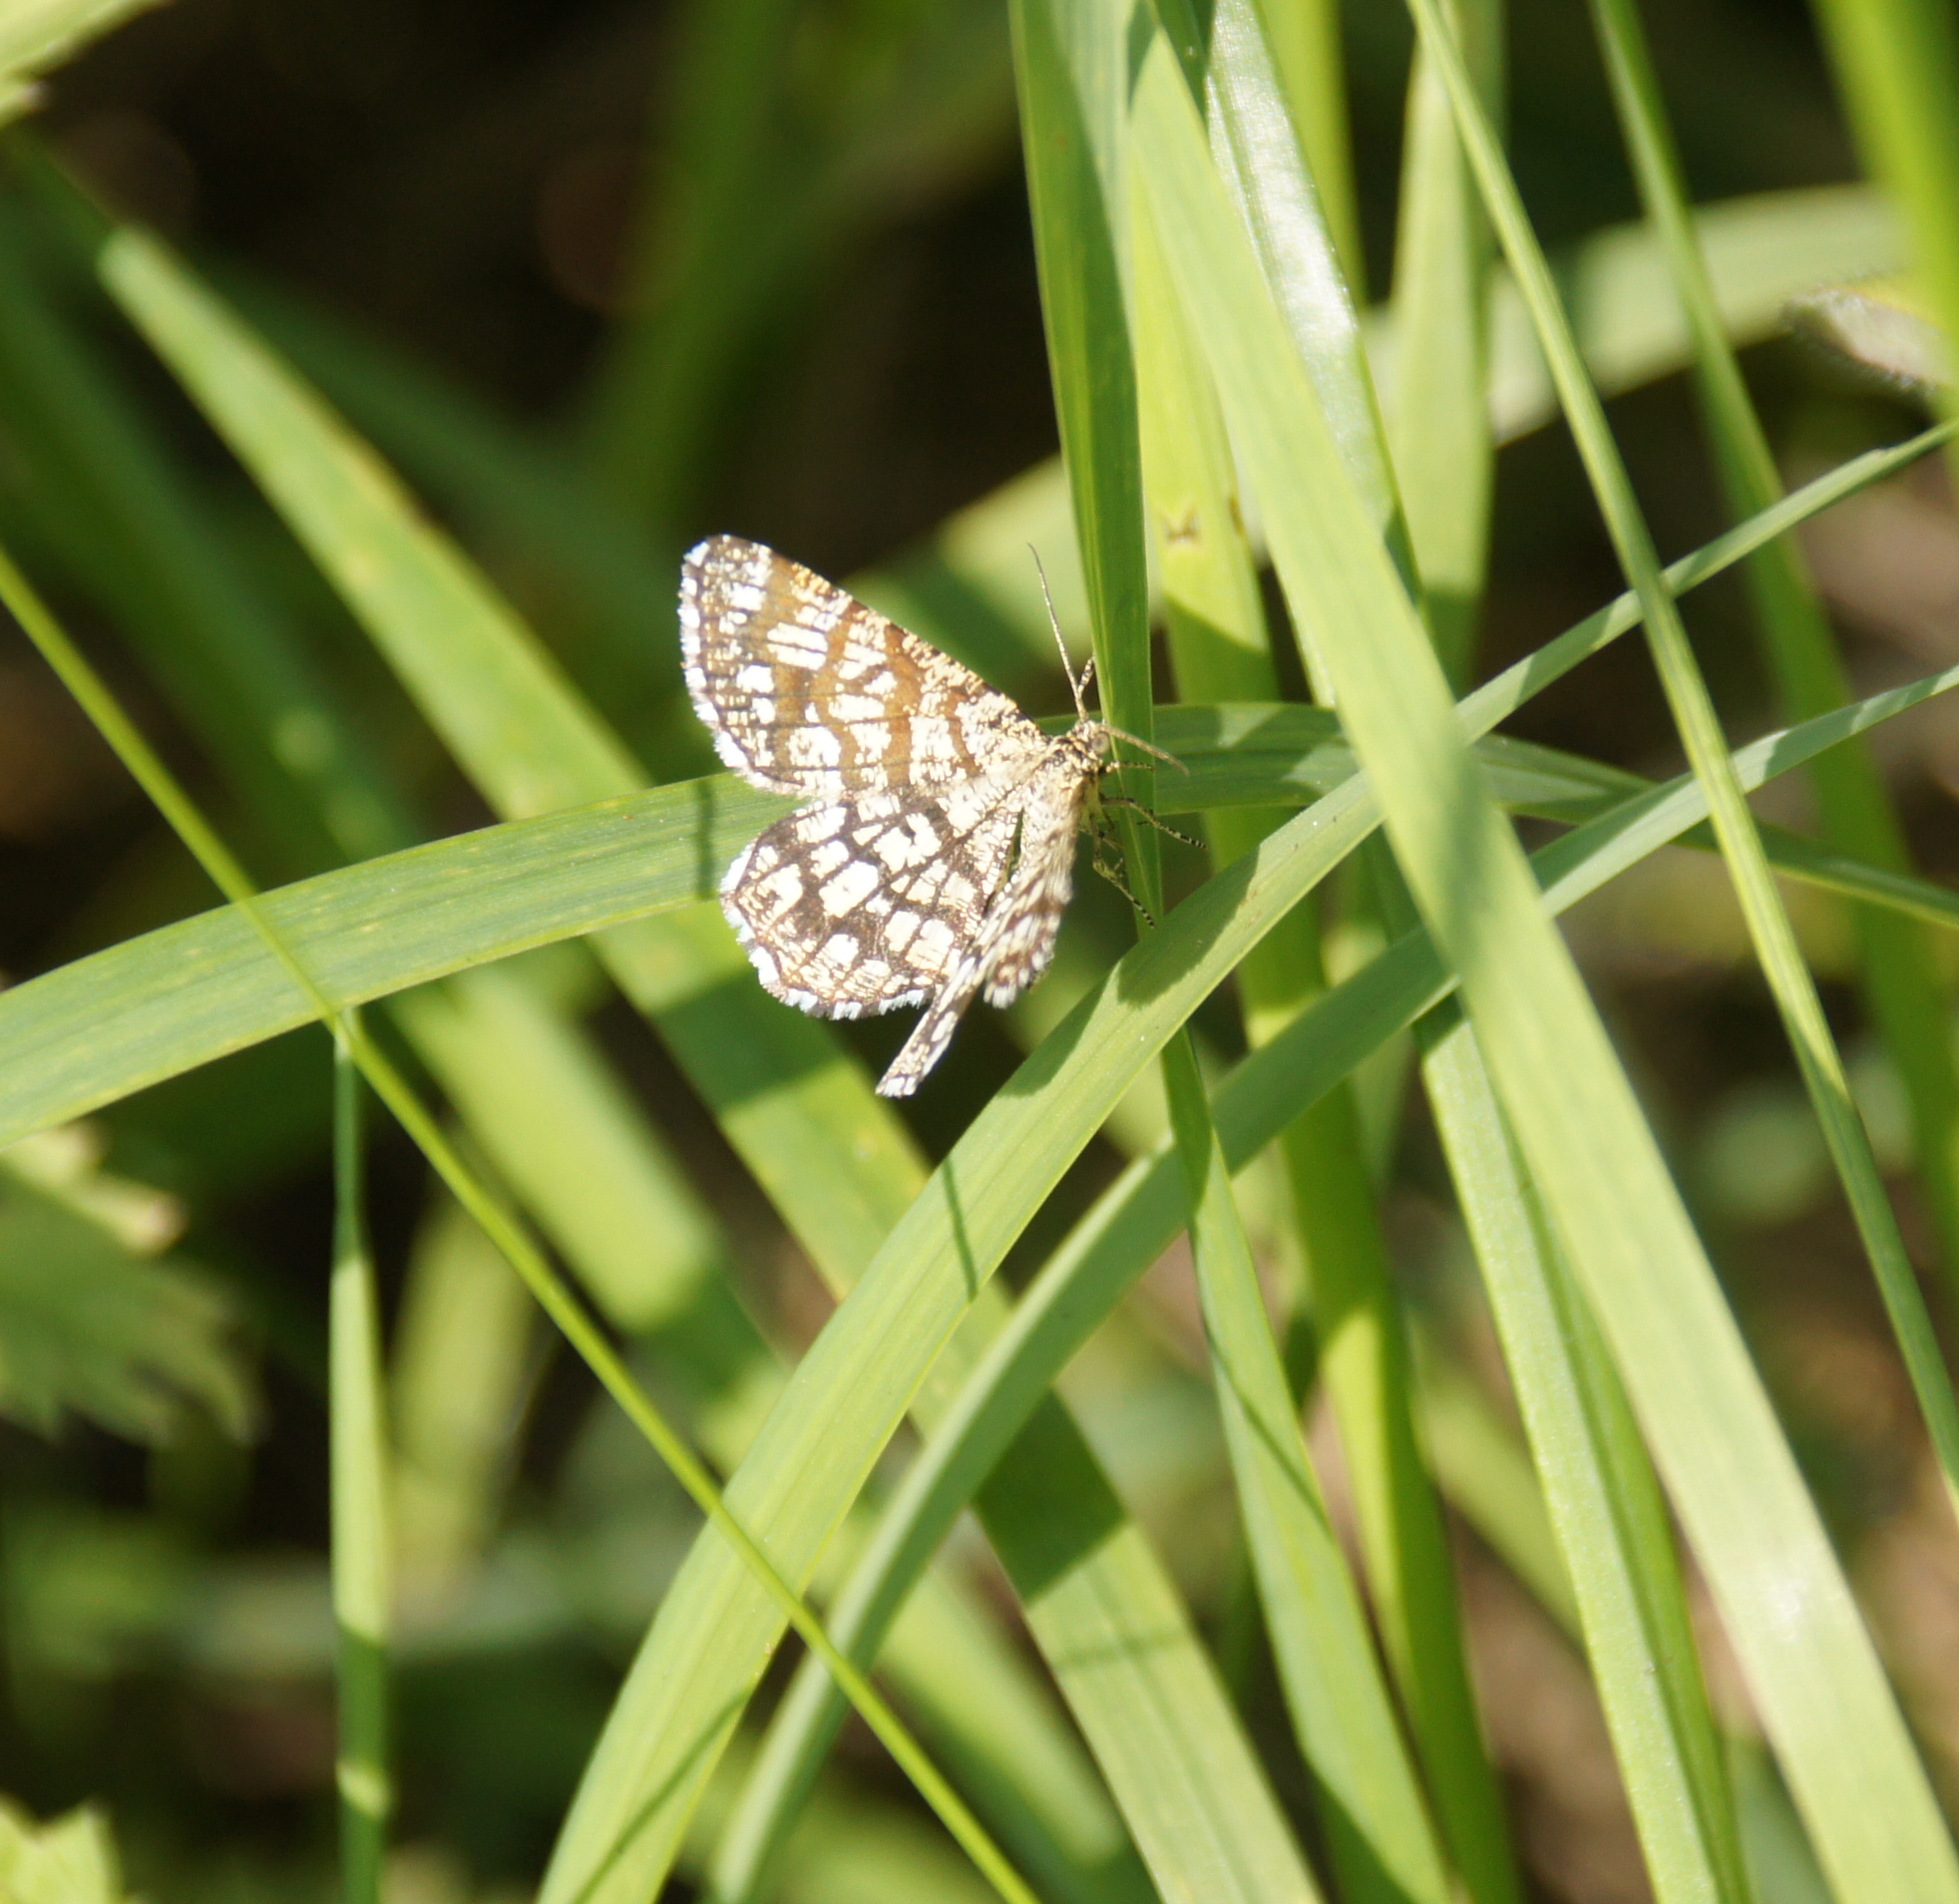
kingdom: Animalia
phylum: Arthropoda
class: Insecta
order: Lepidoptera
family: Geometridae
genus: Chiasmia
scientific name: Chiasmia clathrata
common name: Latticed heath
